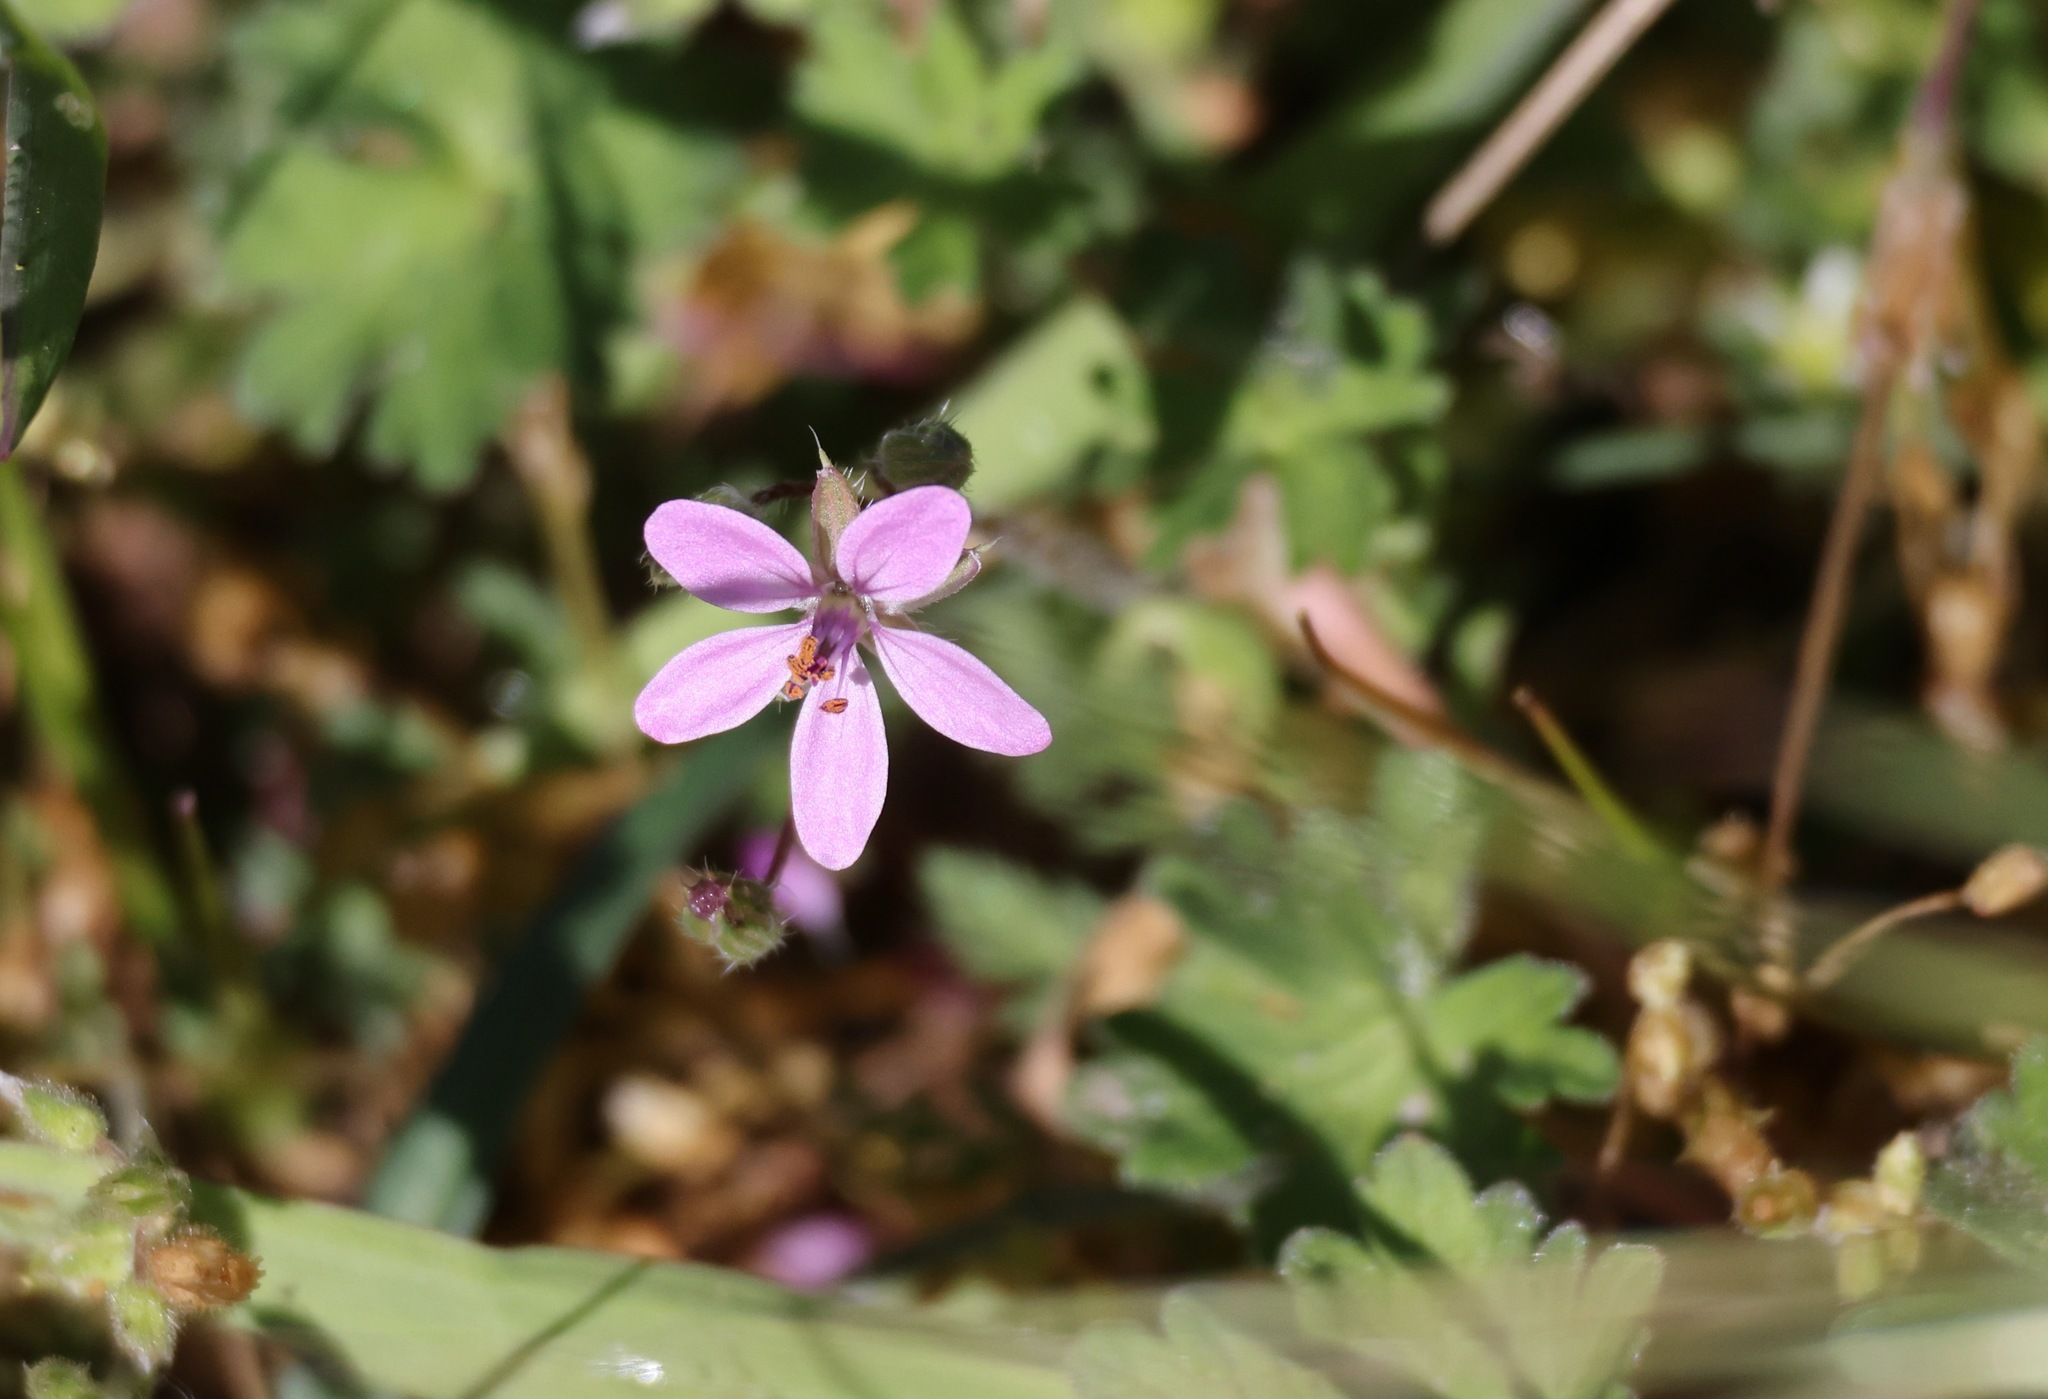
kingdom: Plantae
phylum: Tracheophyta
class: Magnoliopsida
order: Geraniales
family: Geraniaceae
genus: Erodium
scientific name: Erodium cicutarium
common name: Common stork's-bill
